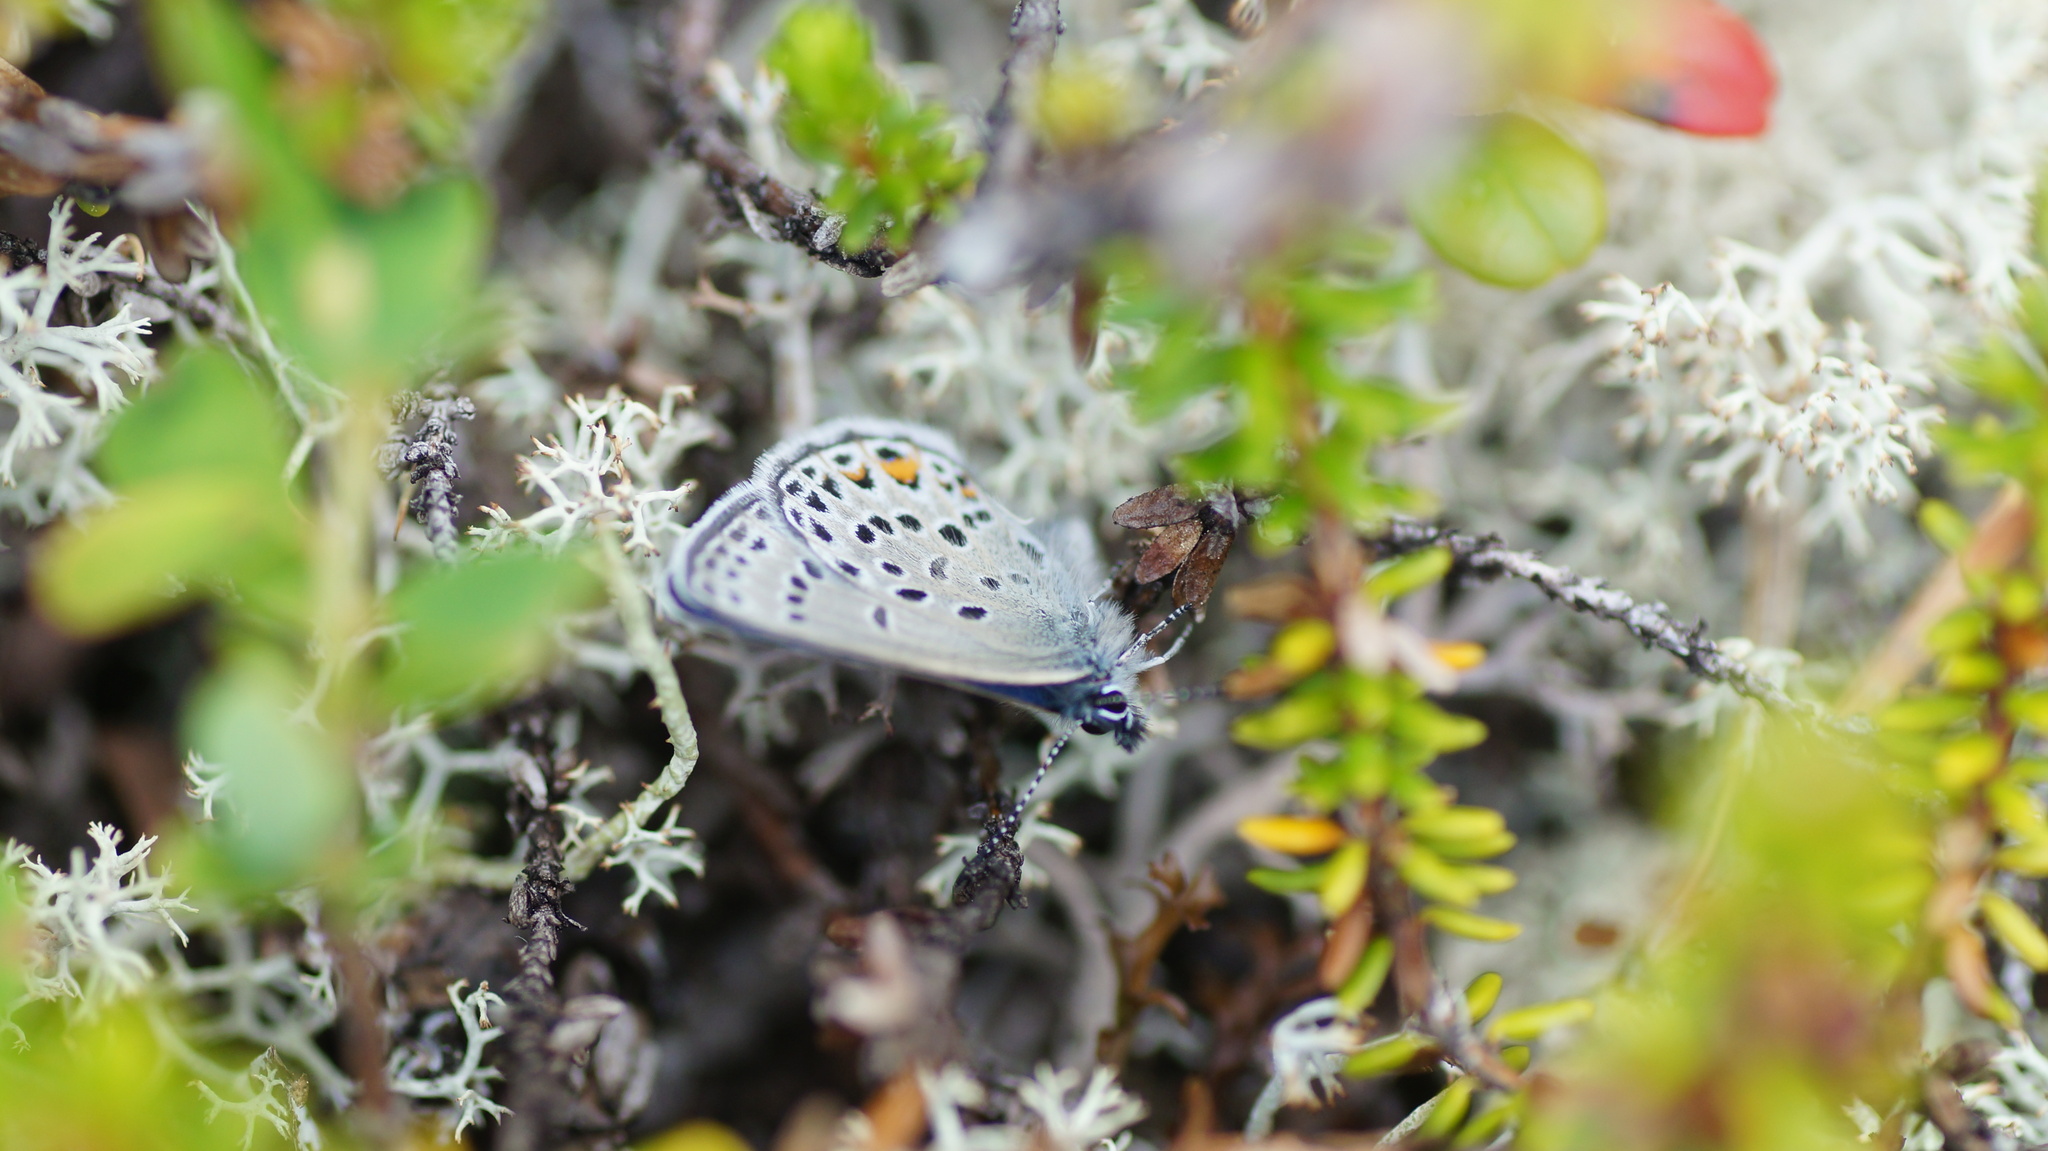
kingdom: Animalia
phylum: Arthropoda
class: Insecta
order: Lepidoptera
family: Lycaenidae
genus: Vacciniina
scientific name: Vacciniina optilete
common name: Cranberry blue
